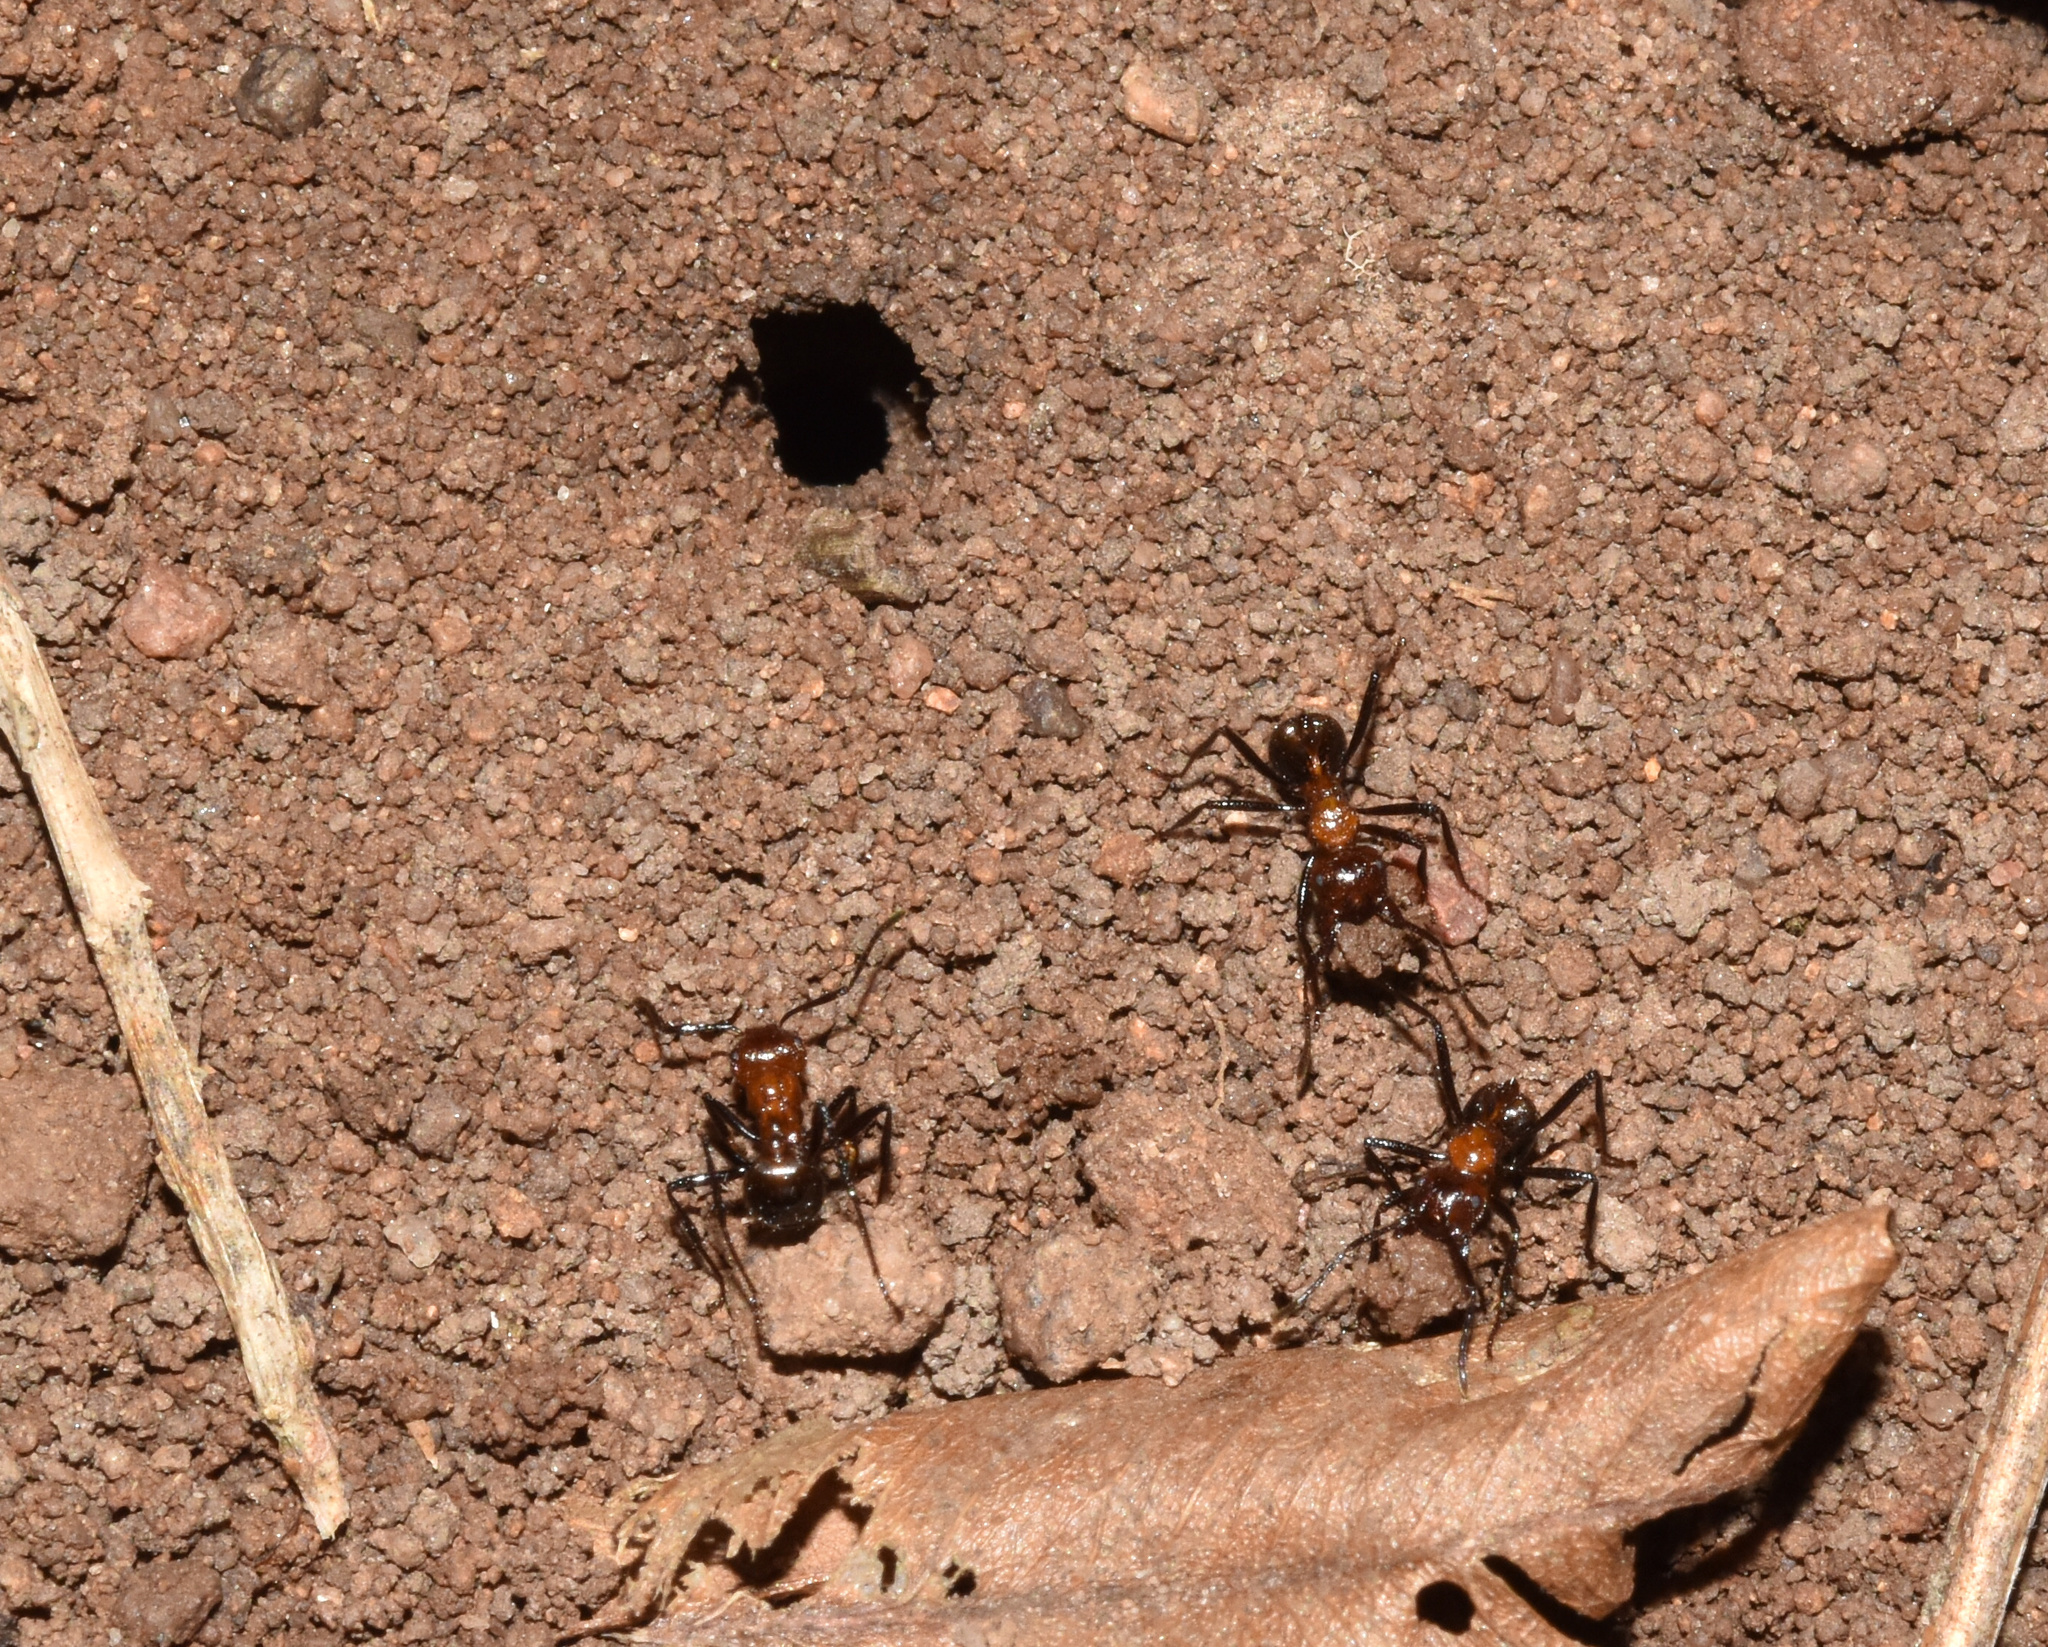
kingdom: Animalia
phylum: Arthropoda
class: Insecta
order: Hymenoptera
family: Formicidae
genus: Myrmicaria
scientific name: Myrmicaria natalensis
